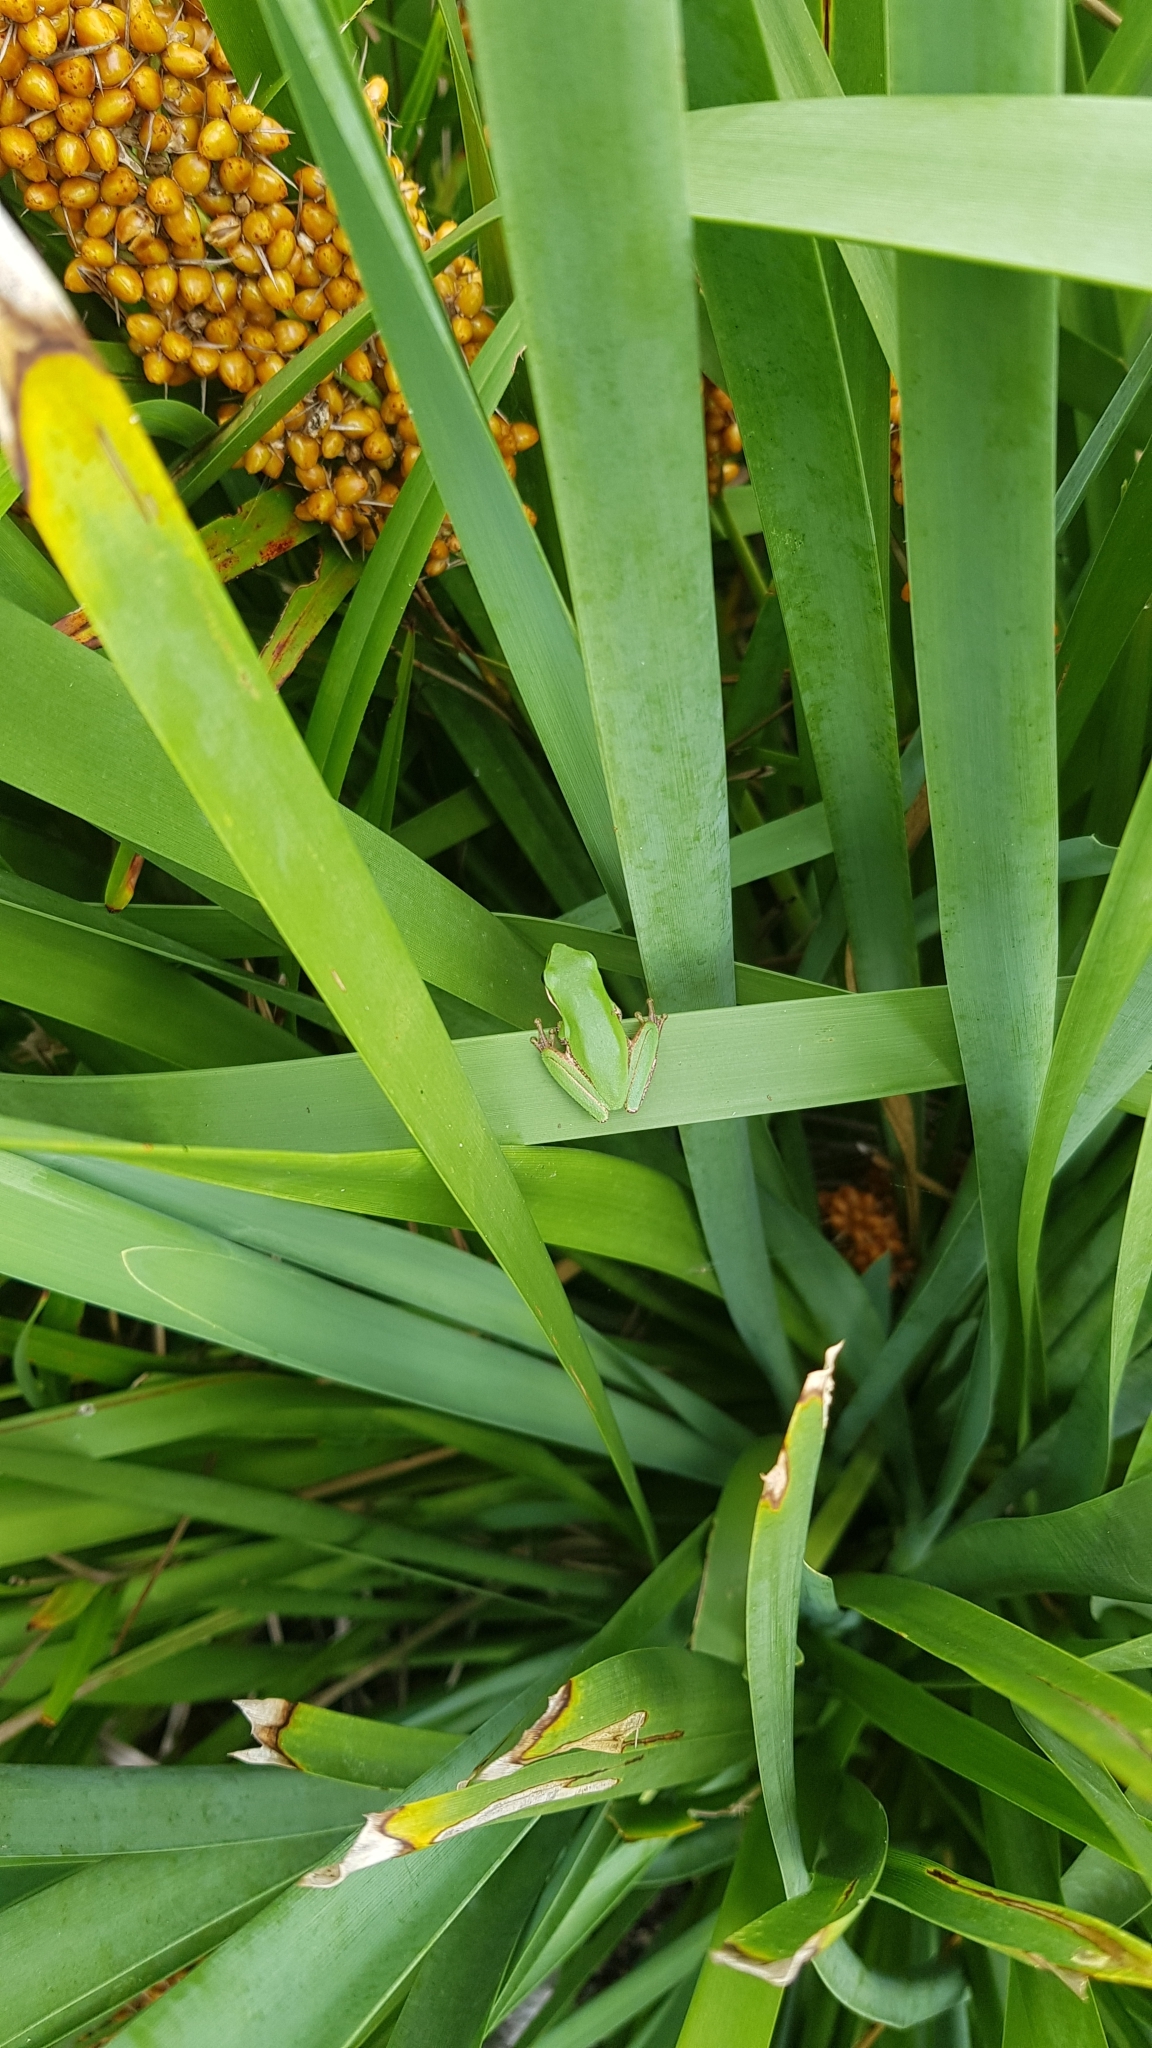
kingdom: Animalia
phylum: Chordata
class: Amphibia
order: Anura
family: Pelodryadidae
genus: Litoria
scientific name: Litoria fallax
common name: Eastern dwarf treefrog
